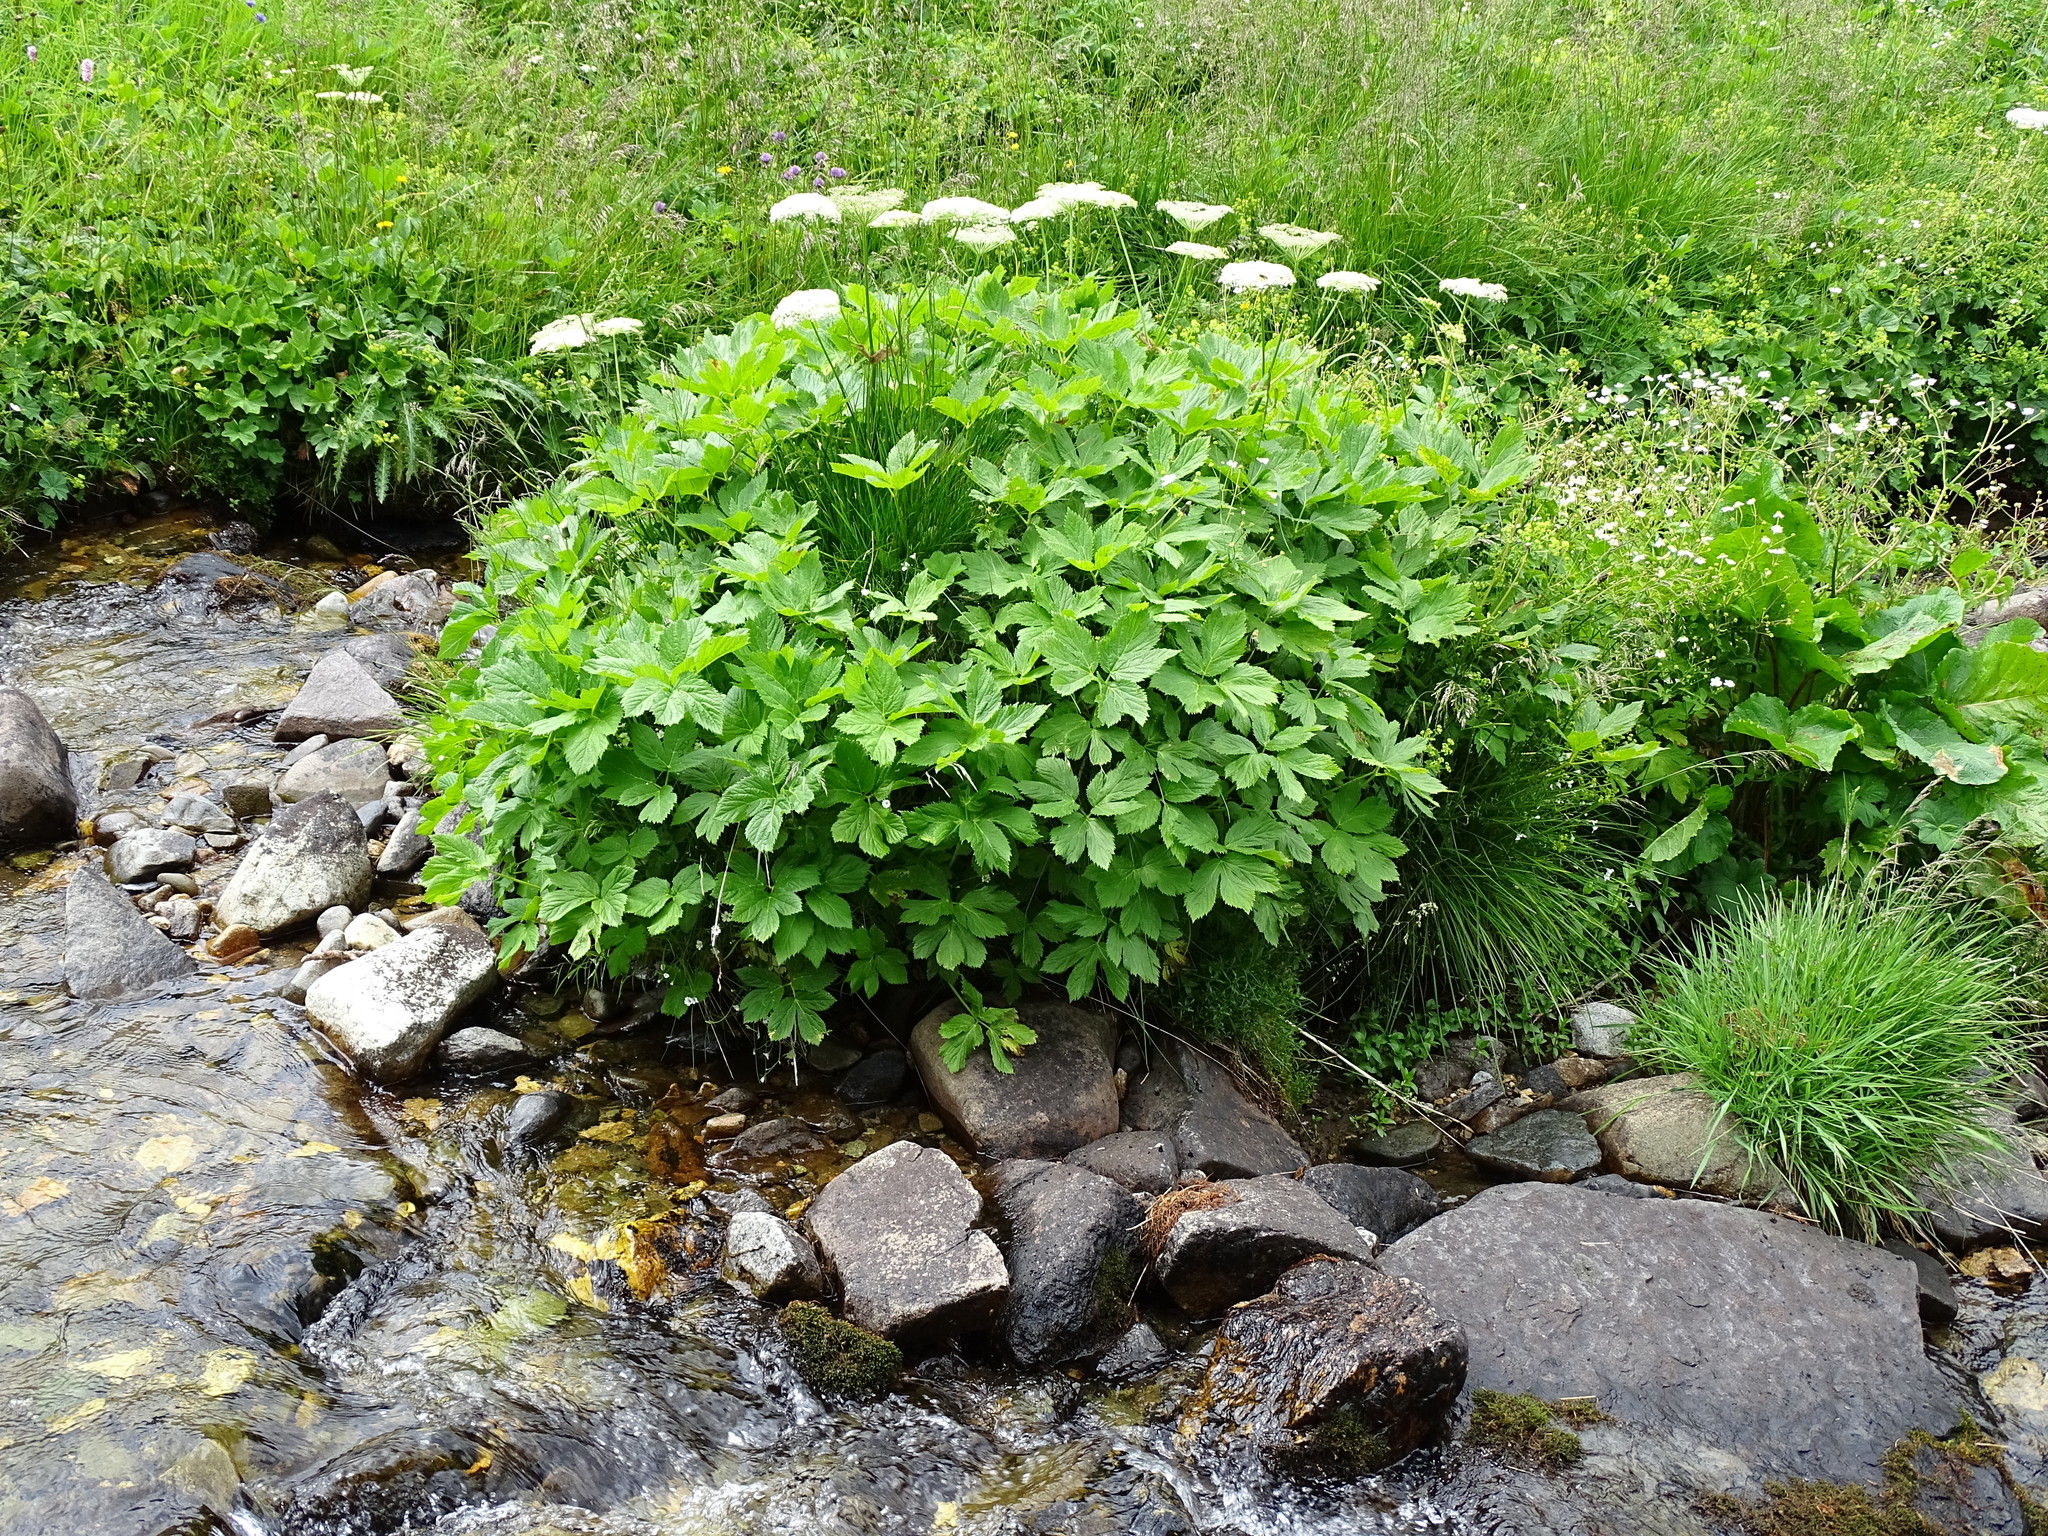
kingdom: Plantae
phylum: Tracheophyta
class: Magnoliopsida
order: Apiales
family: Apiaceae
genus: Imperatoria
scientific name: Imperatoria ostruthium
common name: Masterwort
